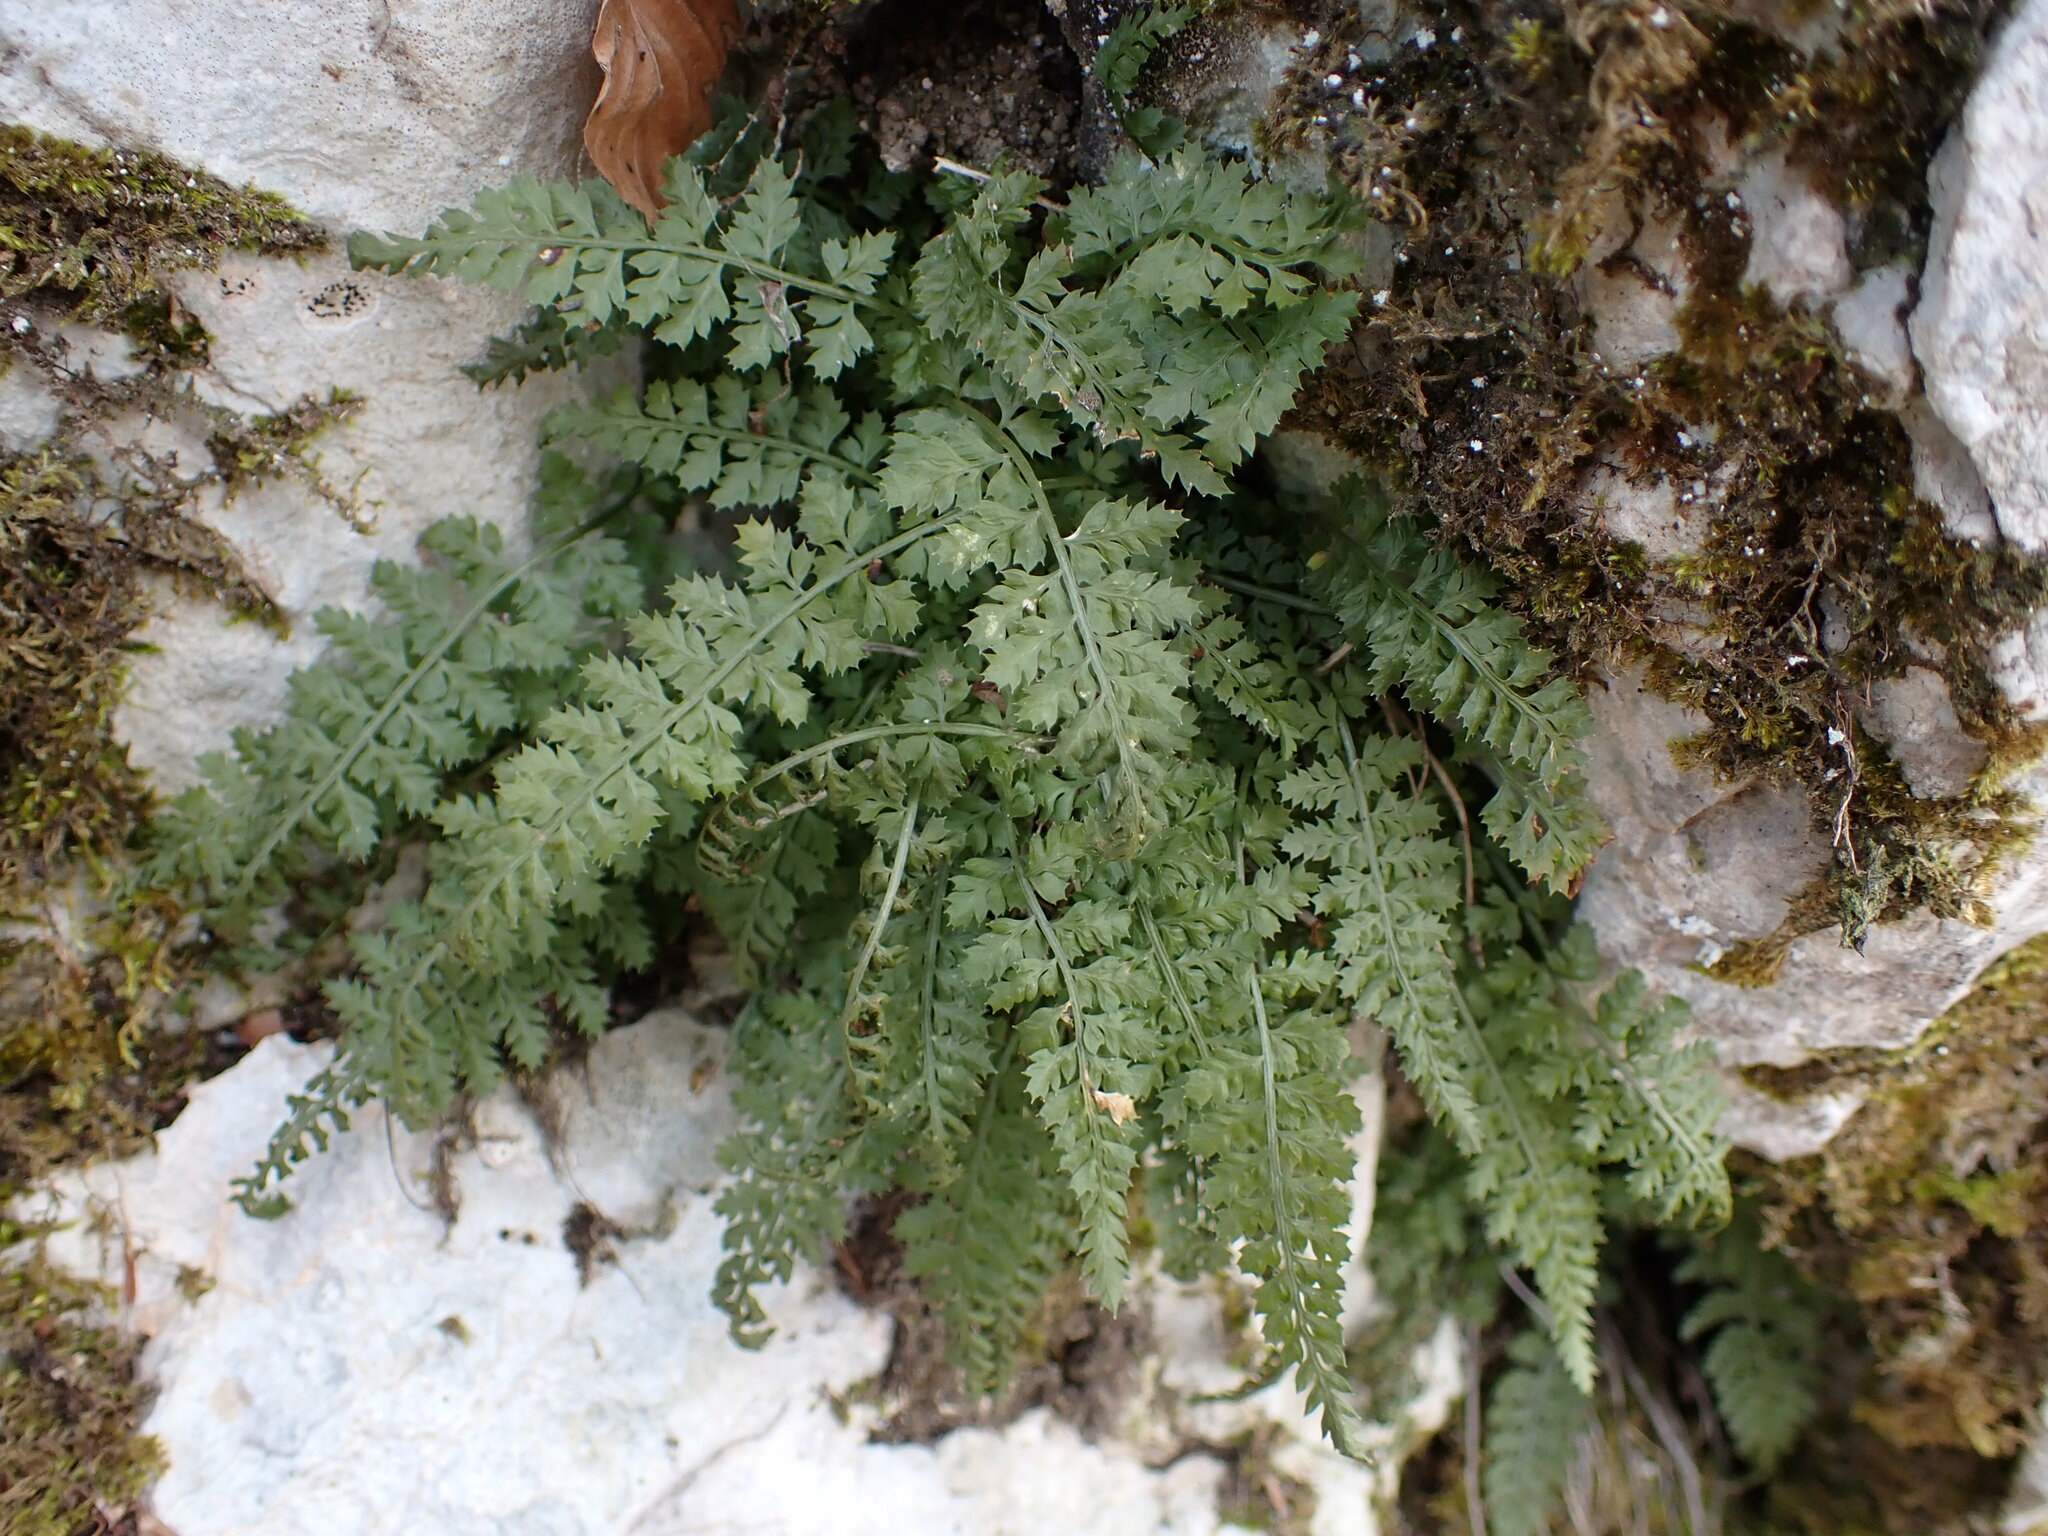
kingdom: Plantae
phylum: Tracheophyta
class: Polypodiopsida
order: Polypodiales
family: Aspleniaceae
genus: Asplenium
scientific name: Asplenium fontanum
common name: Fountain spleenwort
